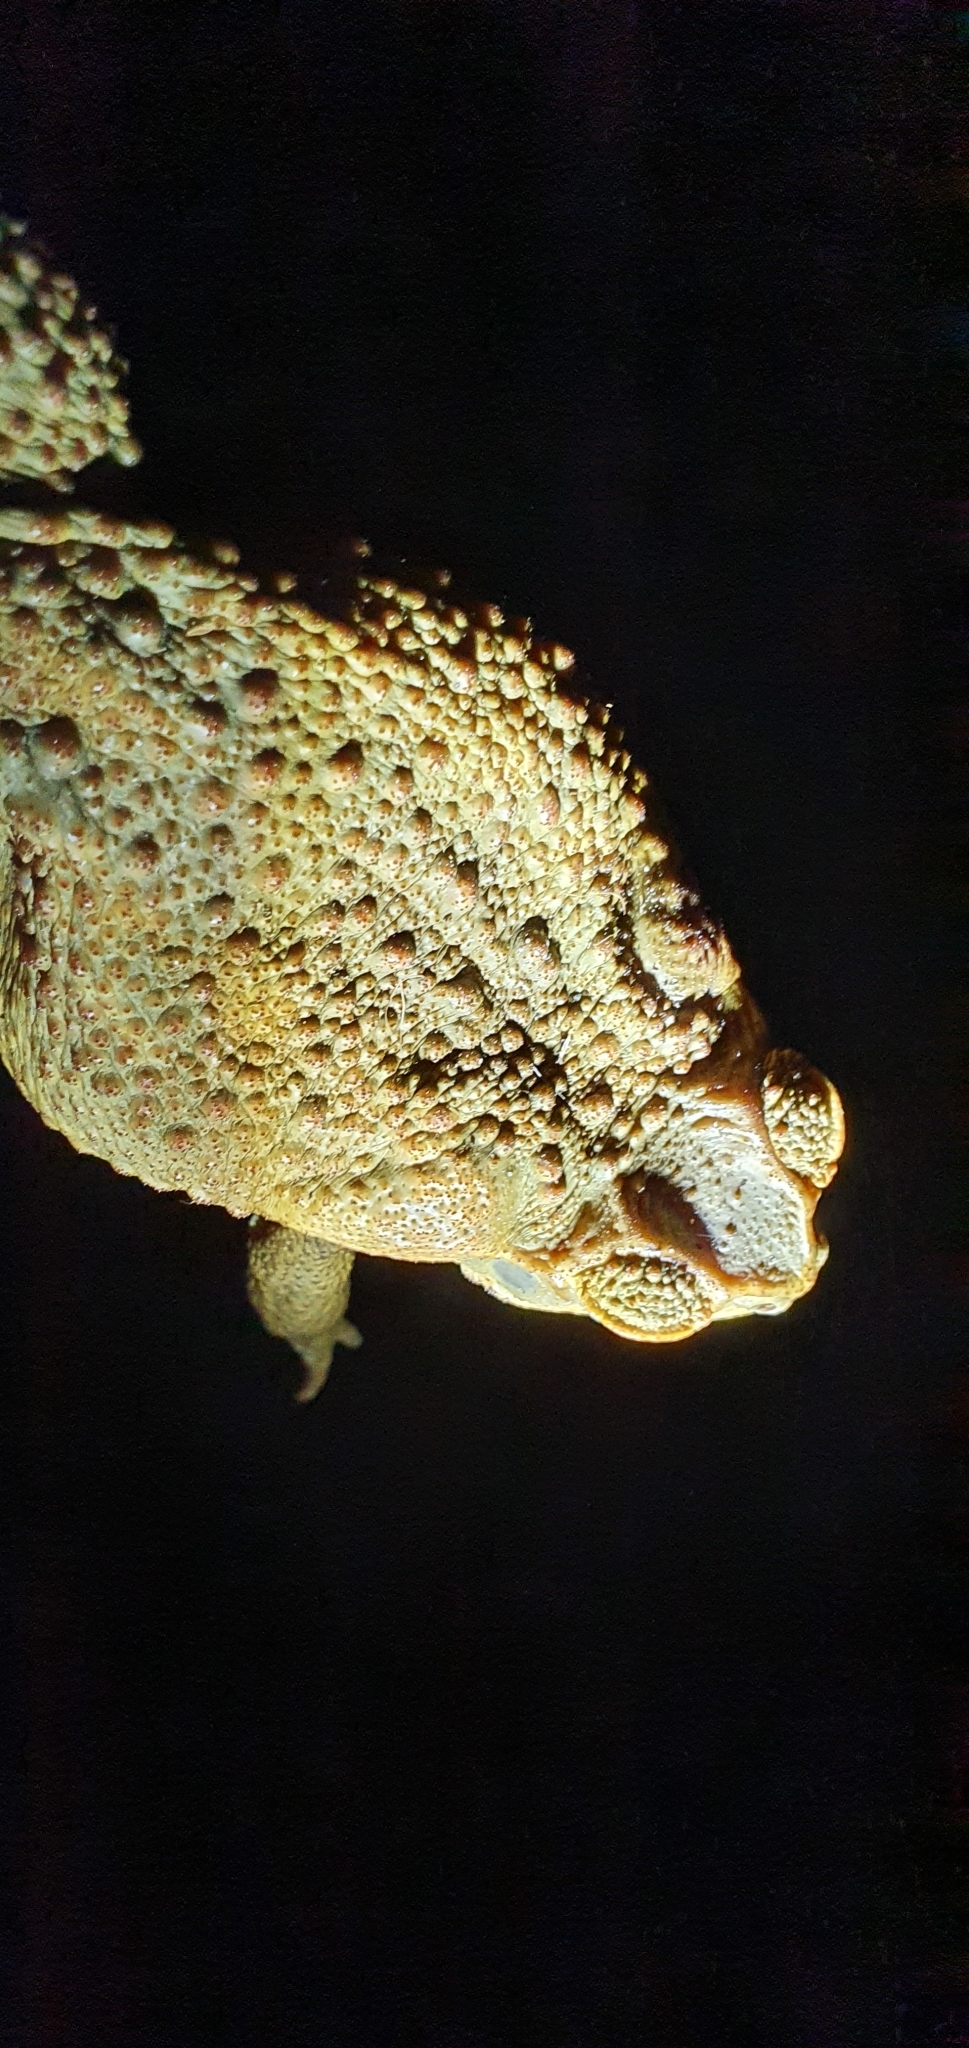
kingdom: Animalia
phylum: Chordata
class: Amphibia
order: Anura
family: Bufonidae
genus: Rhinella
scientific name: Rhinella marina
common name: Cane toad
